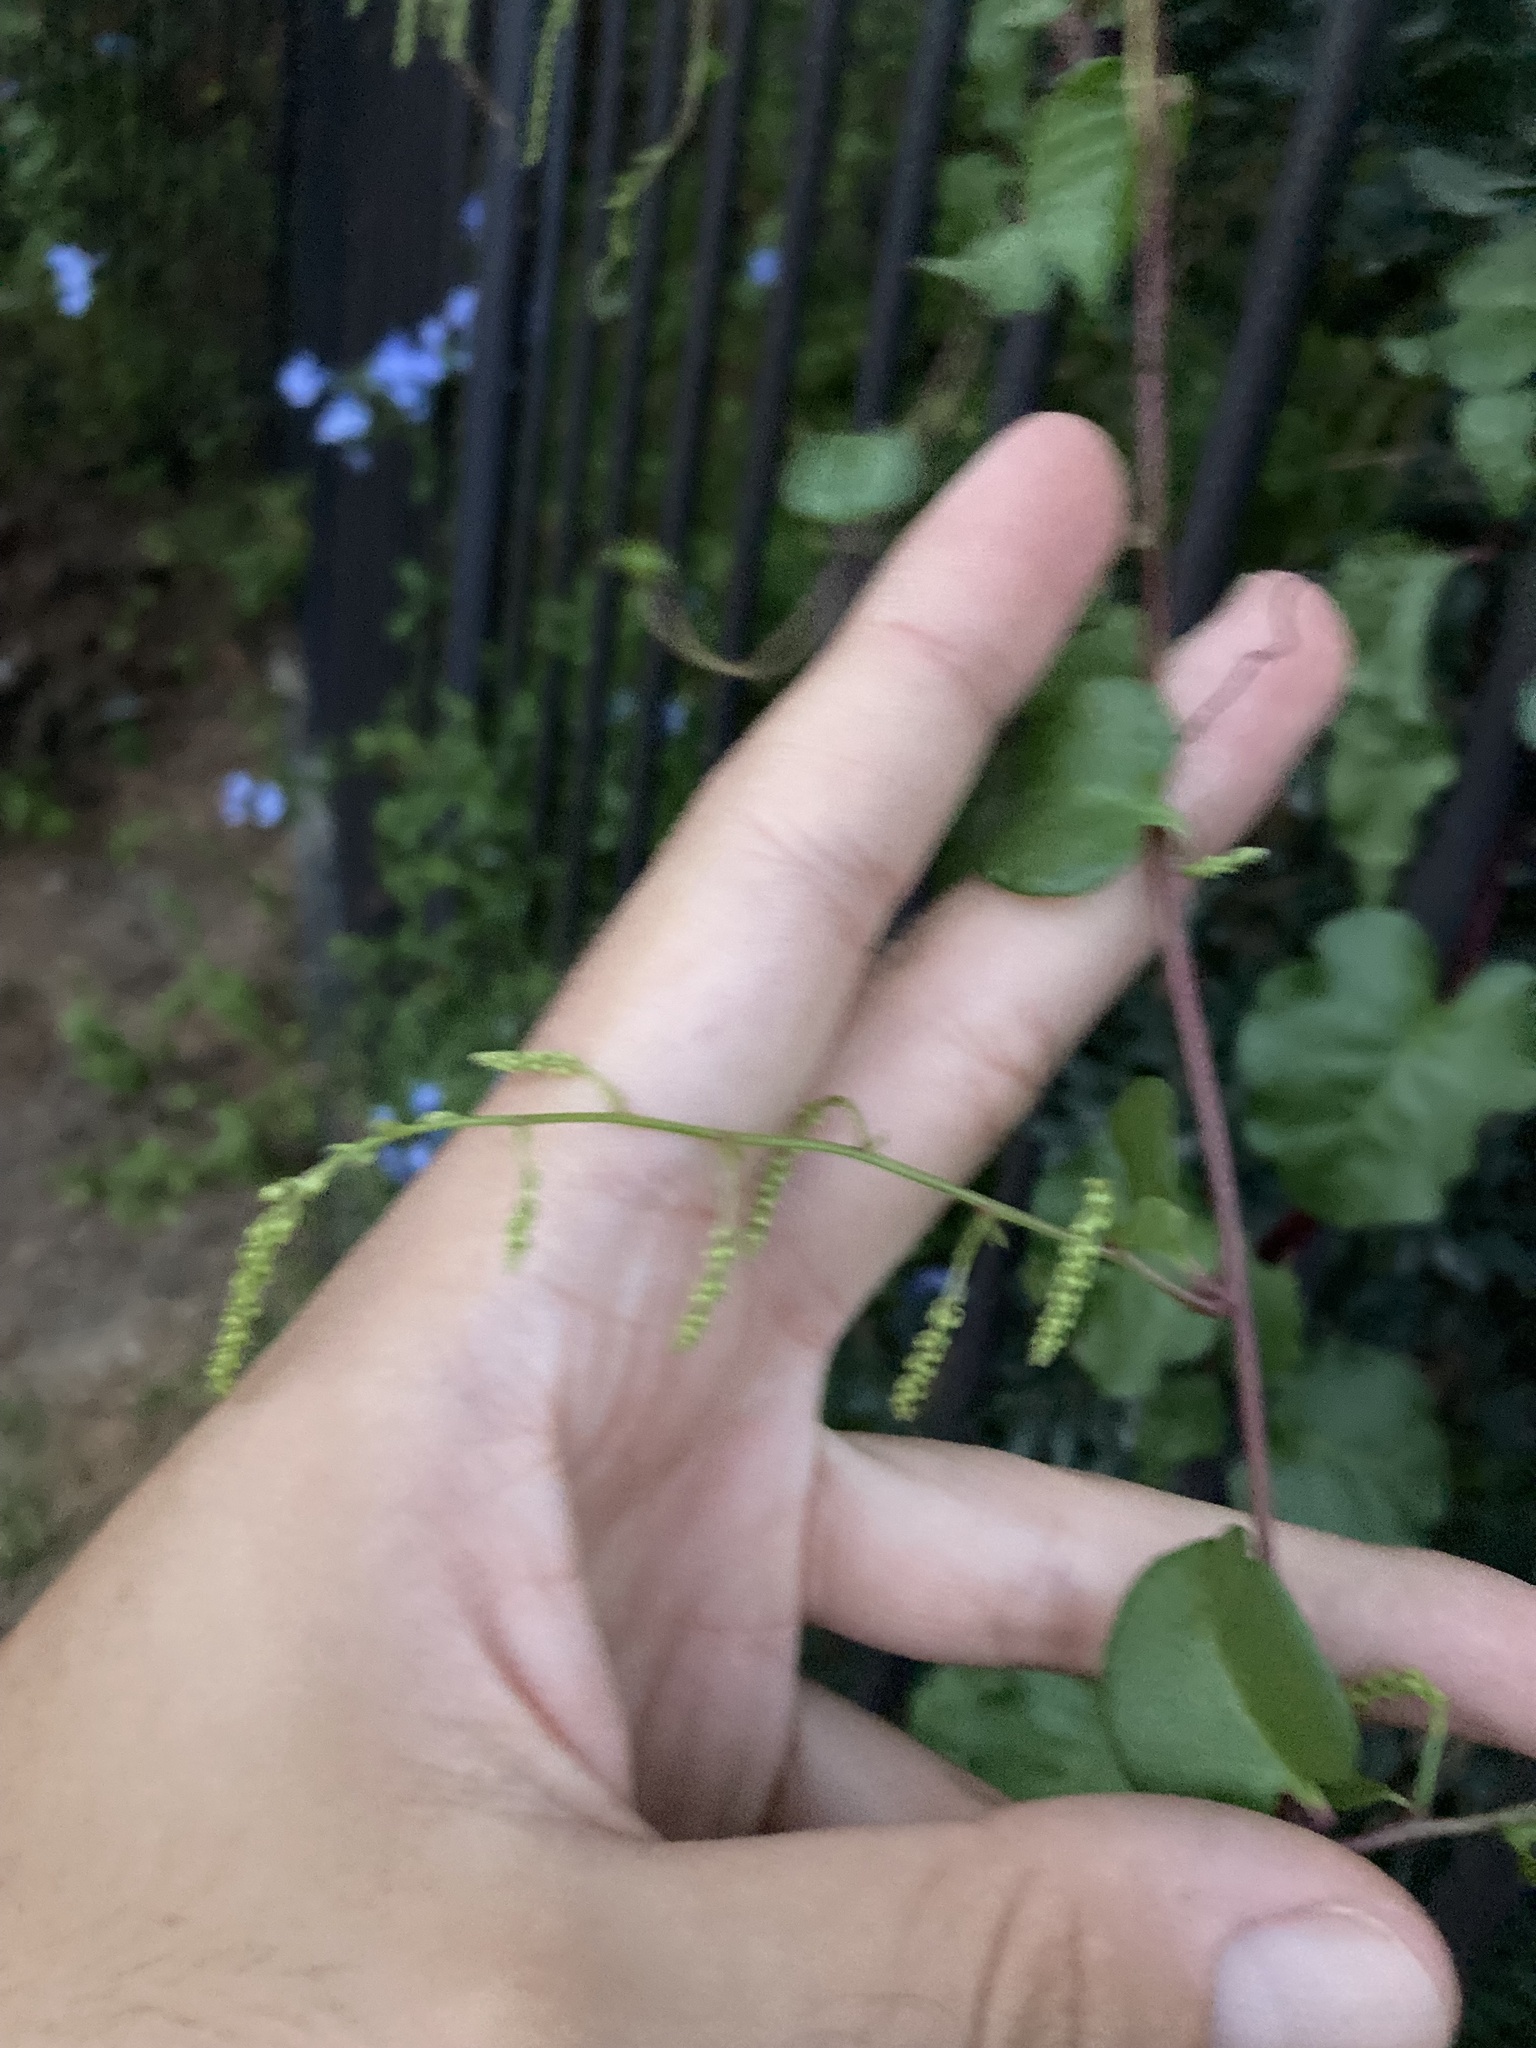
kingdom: Plantae
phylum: Tracheophyta
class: Magnoliopsida
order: Caryophyllales
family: Basellaceae
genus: Anredera
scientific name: Anredera cordifolia
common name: Heartleaf madeiravine
